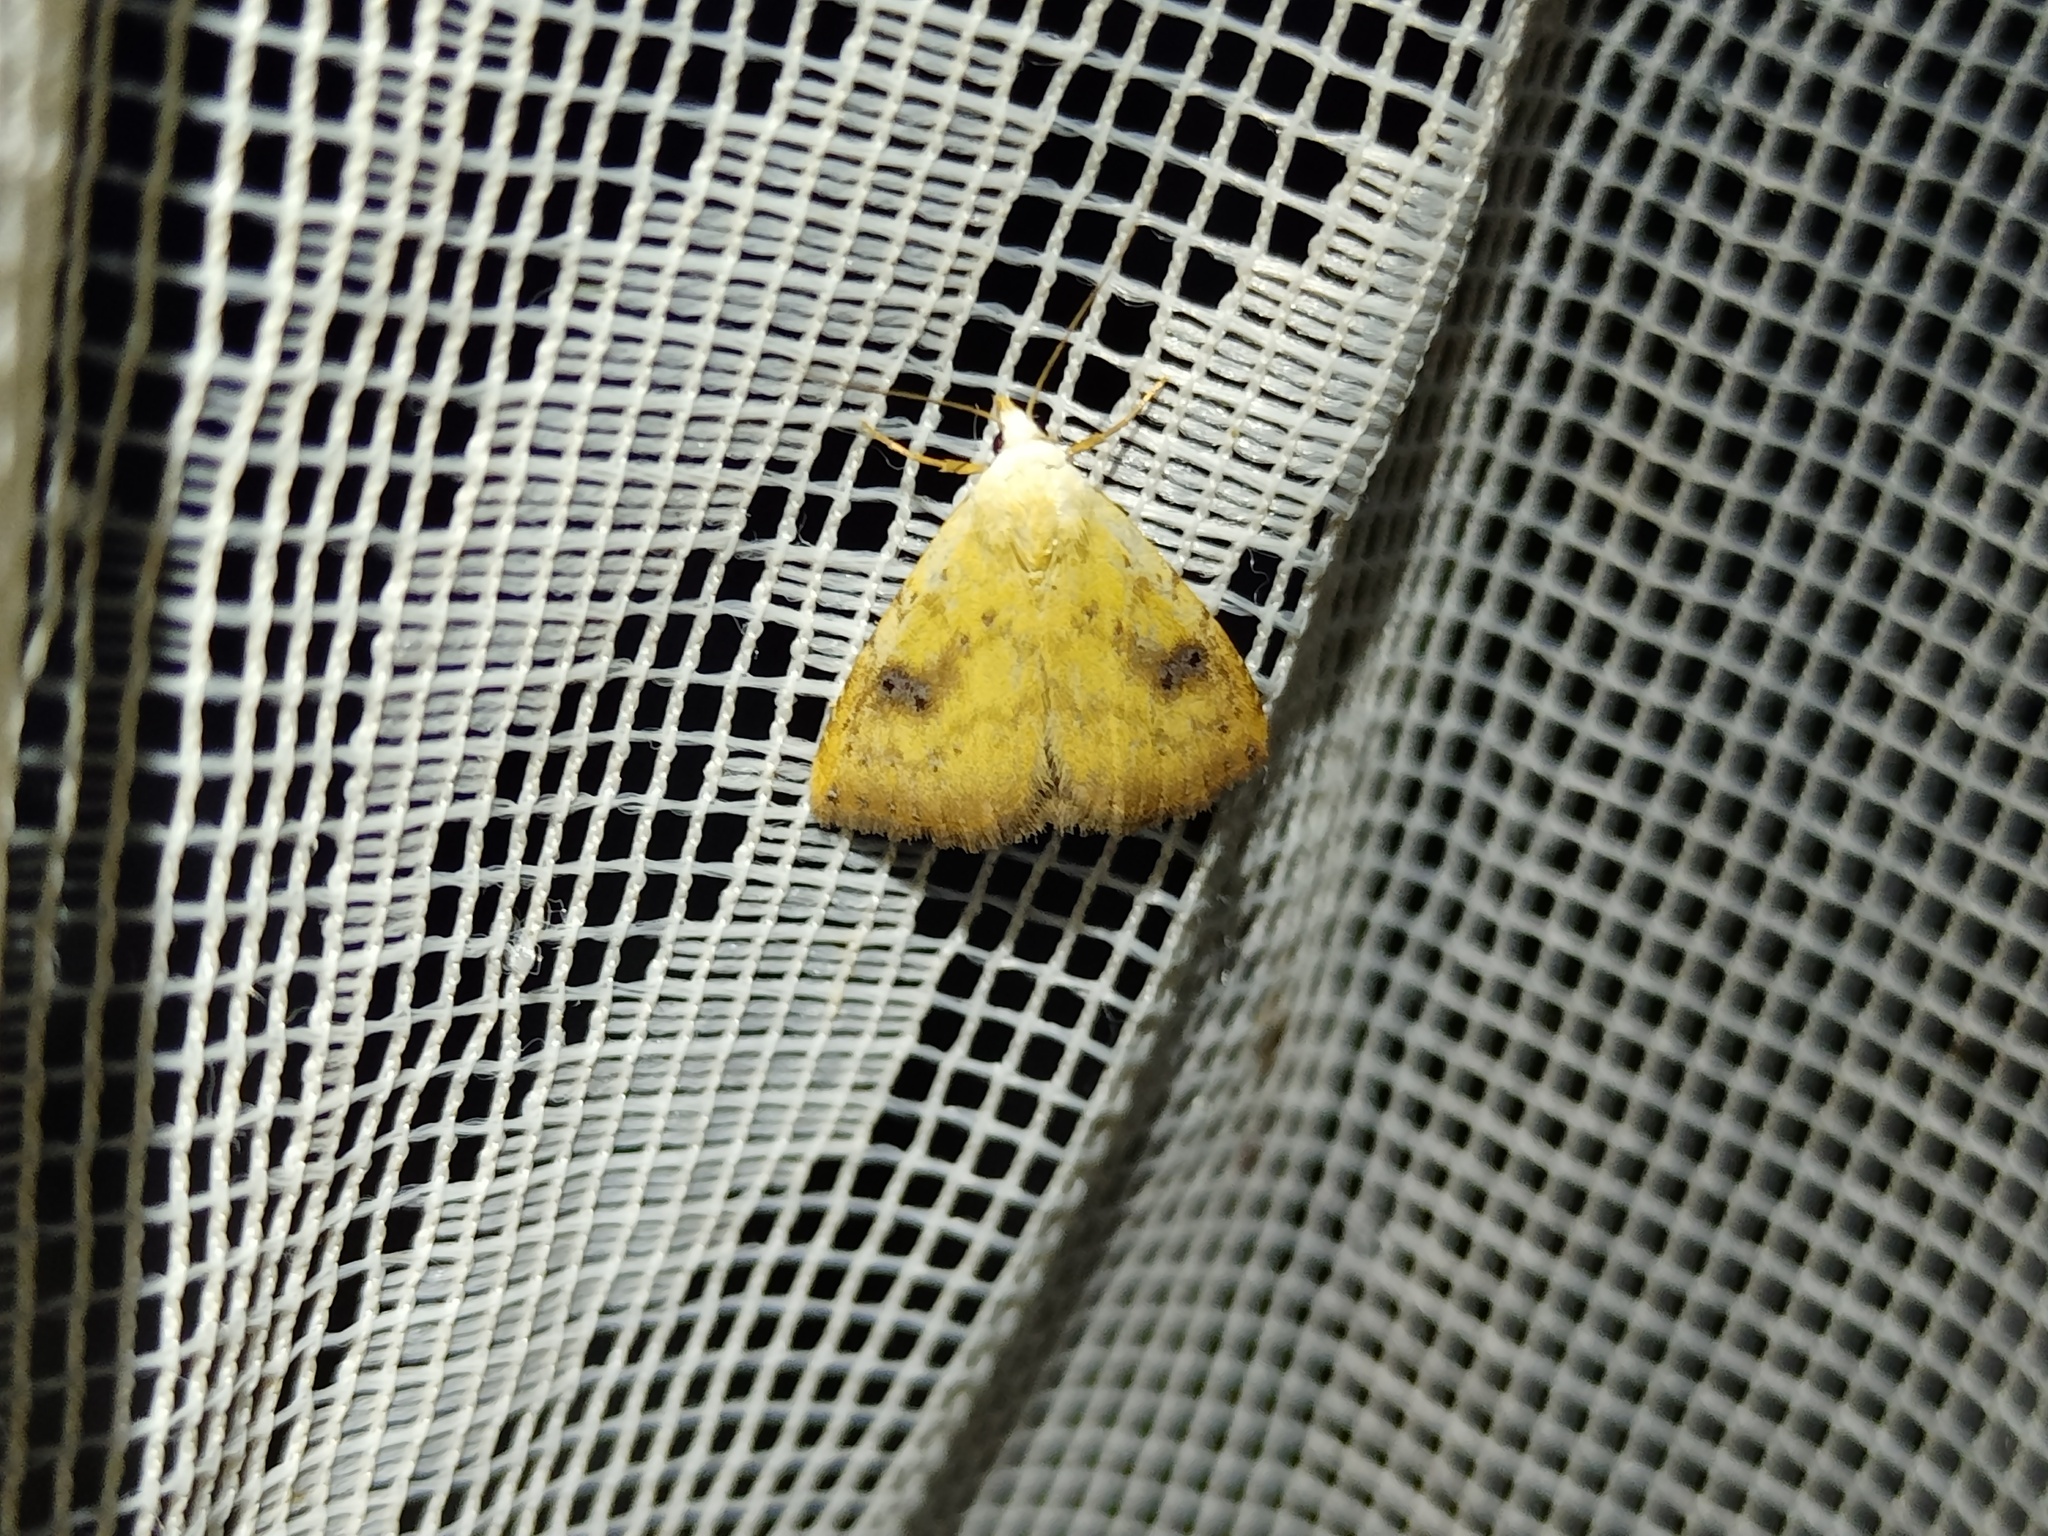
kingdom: Animalia
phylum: Arthropoda
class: Insecta
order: Lepidoptera
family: Erebidae
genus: Rivula
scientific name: Rivula sericealis
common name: Straw dot
